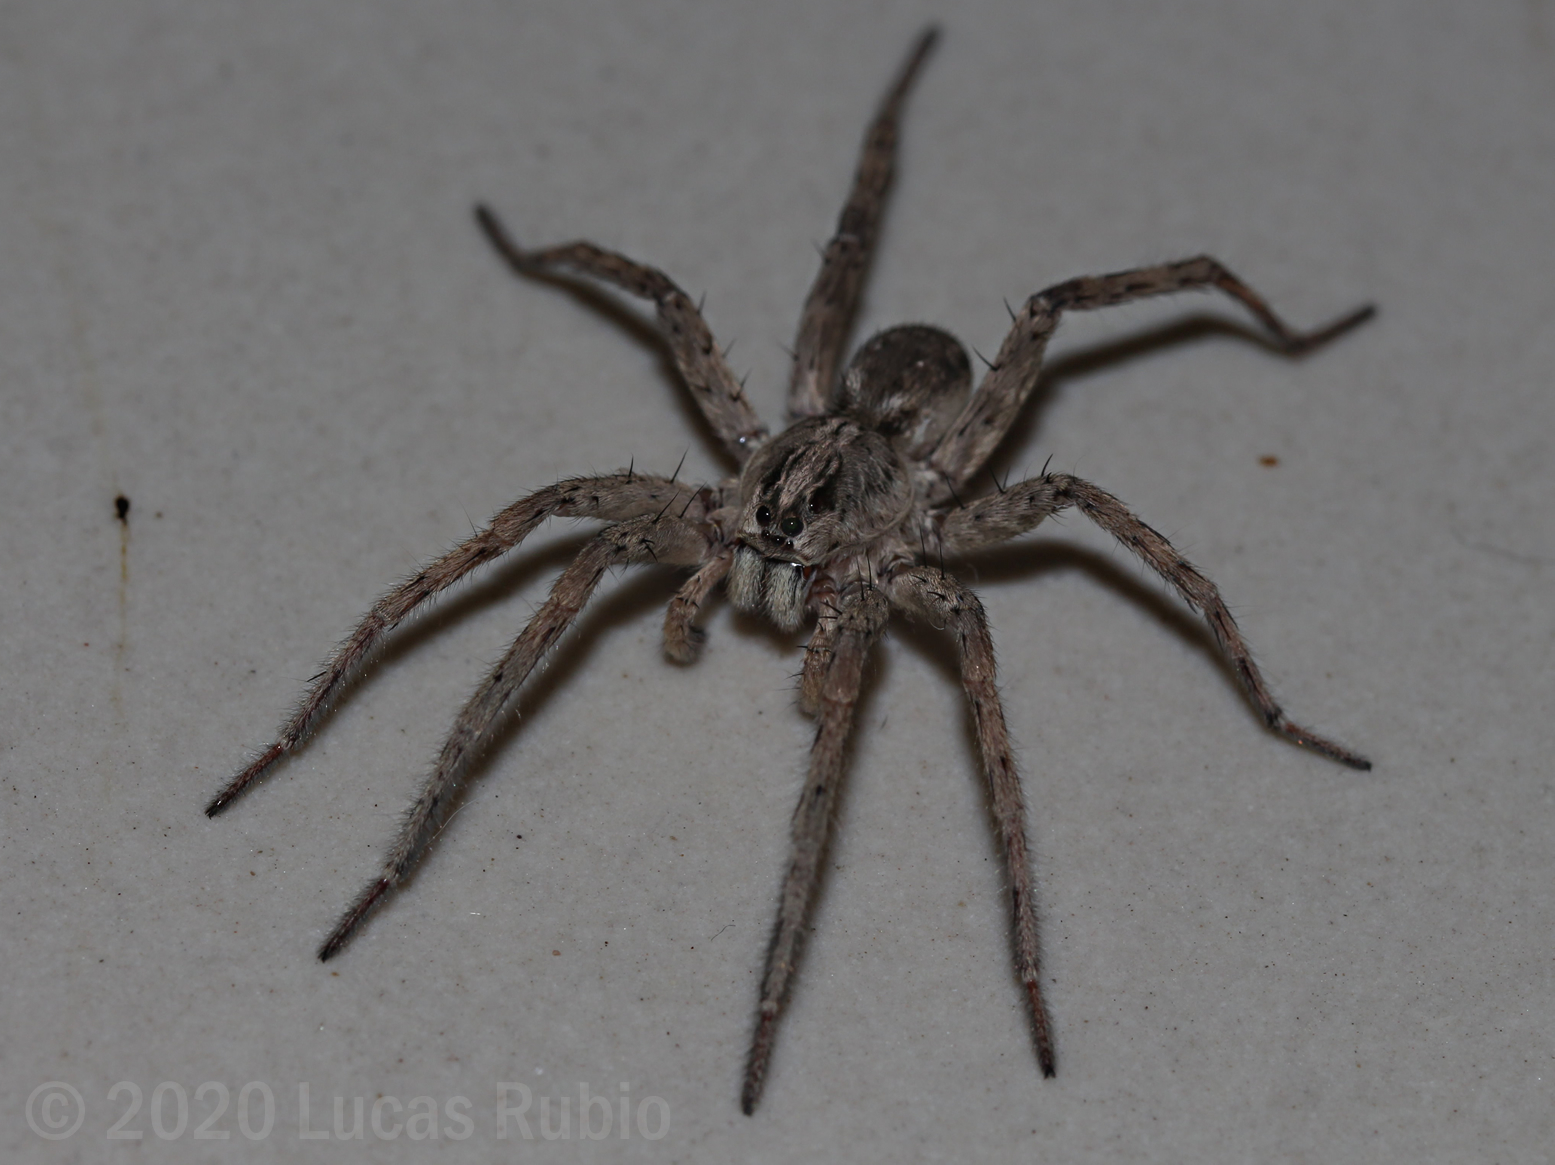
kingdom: Animalia
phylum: Arthropoda
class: Arachnida
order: Araneae
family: Lycosidae
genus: Hogna
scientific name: Hogna variolosa
